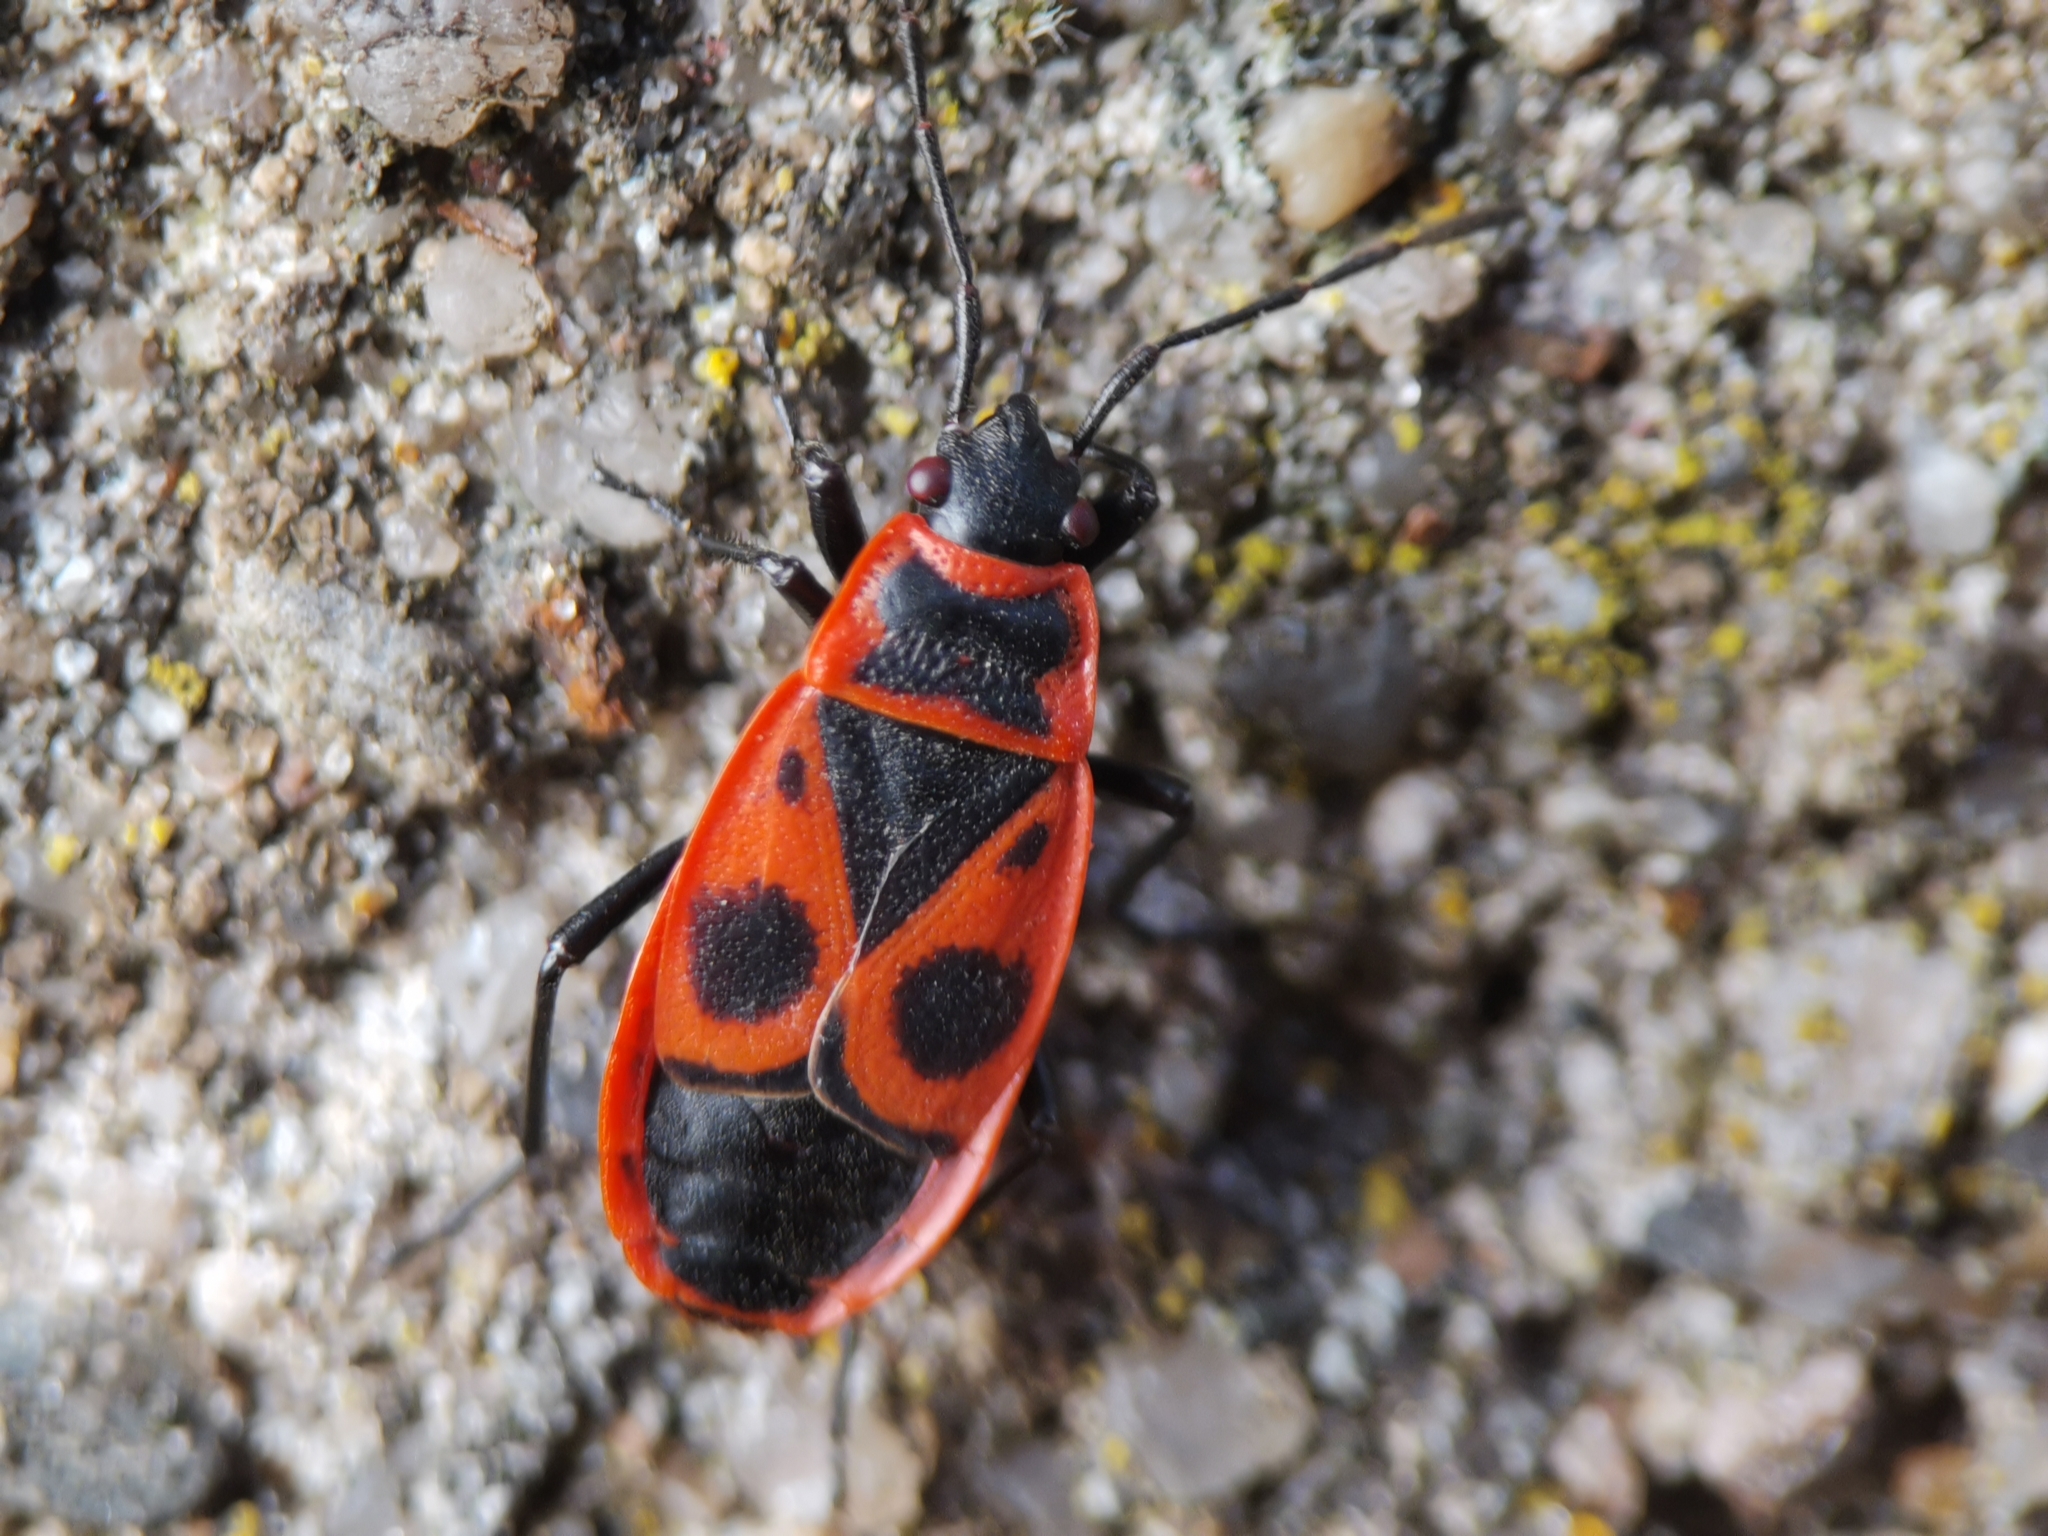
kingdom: Animalia
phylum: Arthropoda
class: Insecta
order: Hemiptera
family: Pyrrhocoridae
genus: Pyrrhocoris
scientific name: Pyrrhocoris apterus
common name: Firebug
